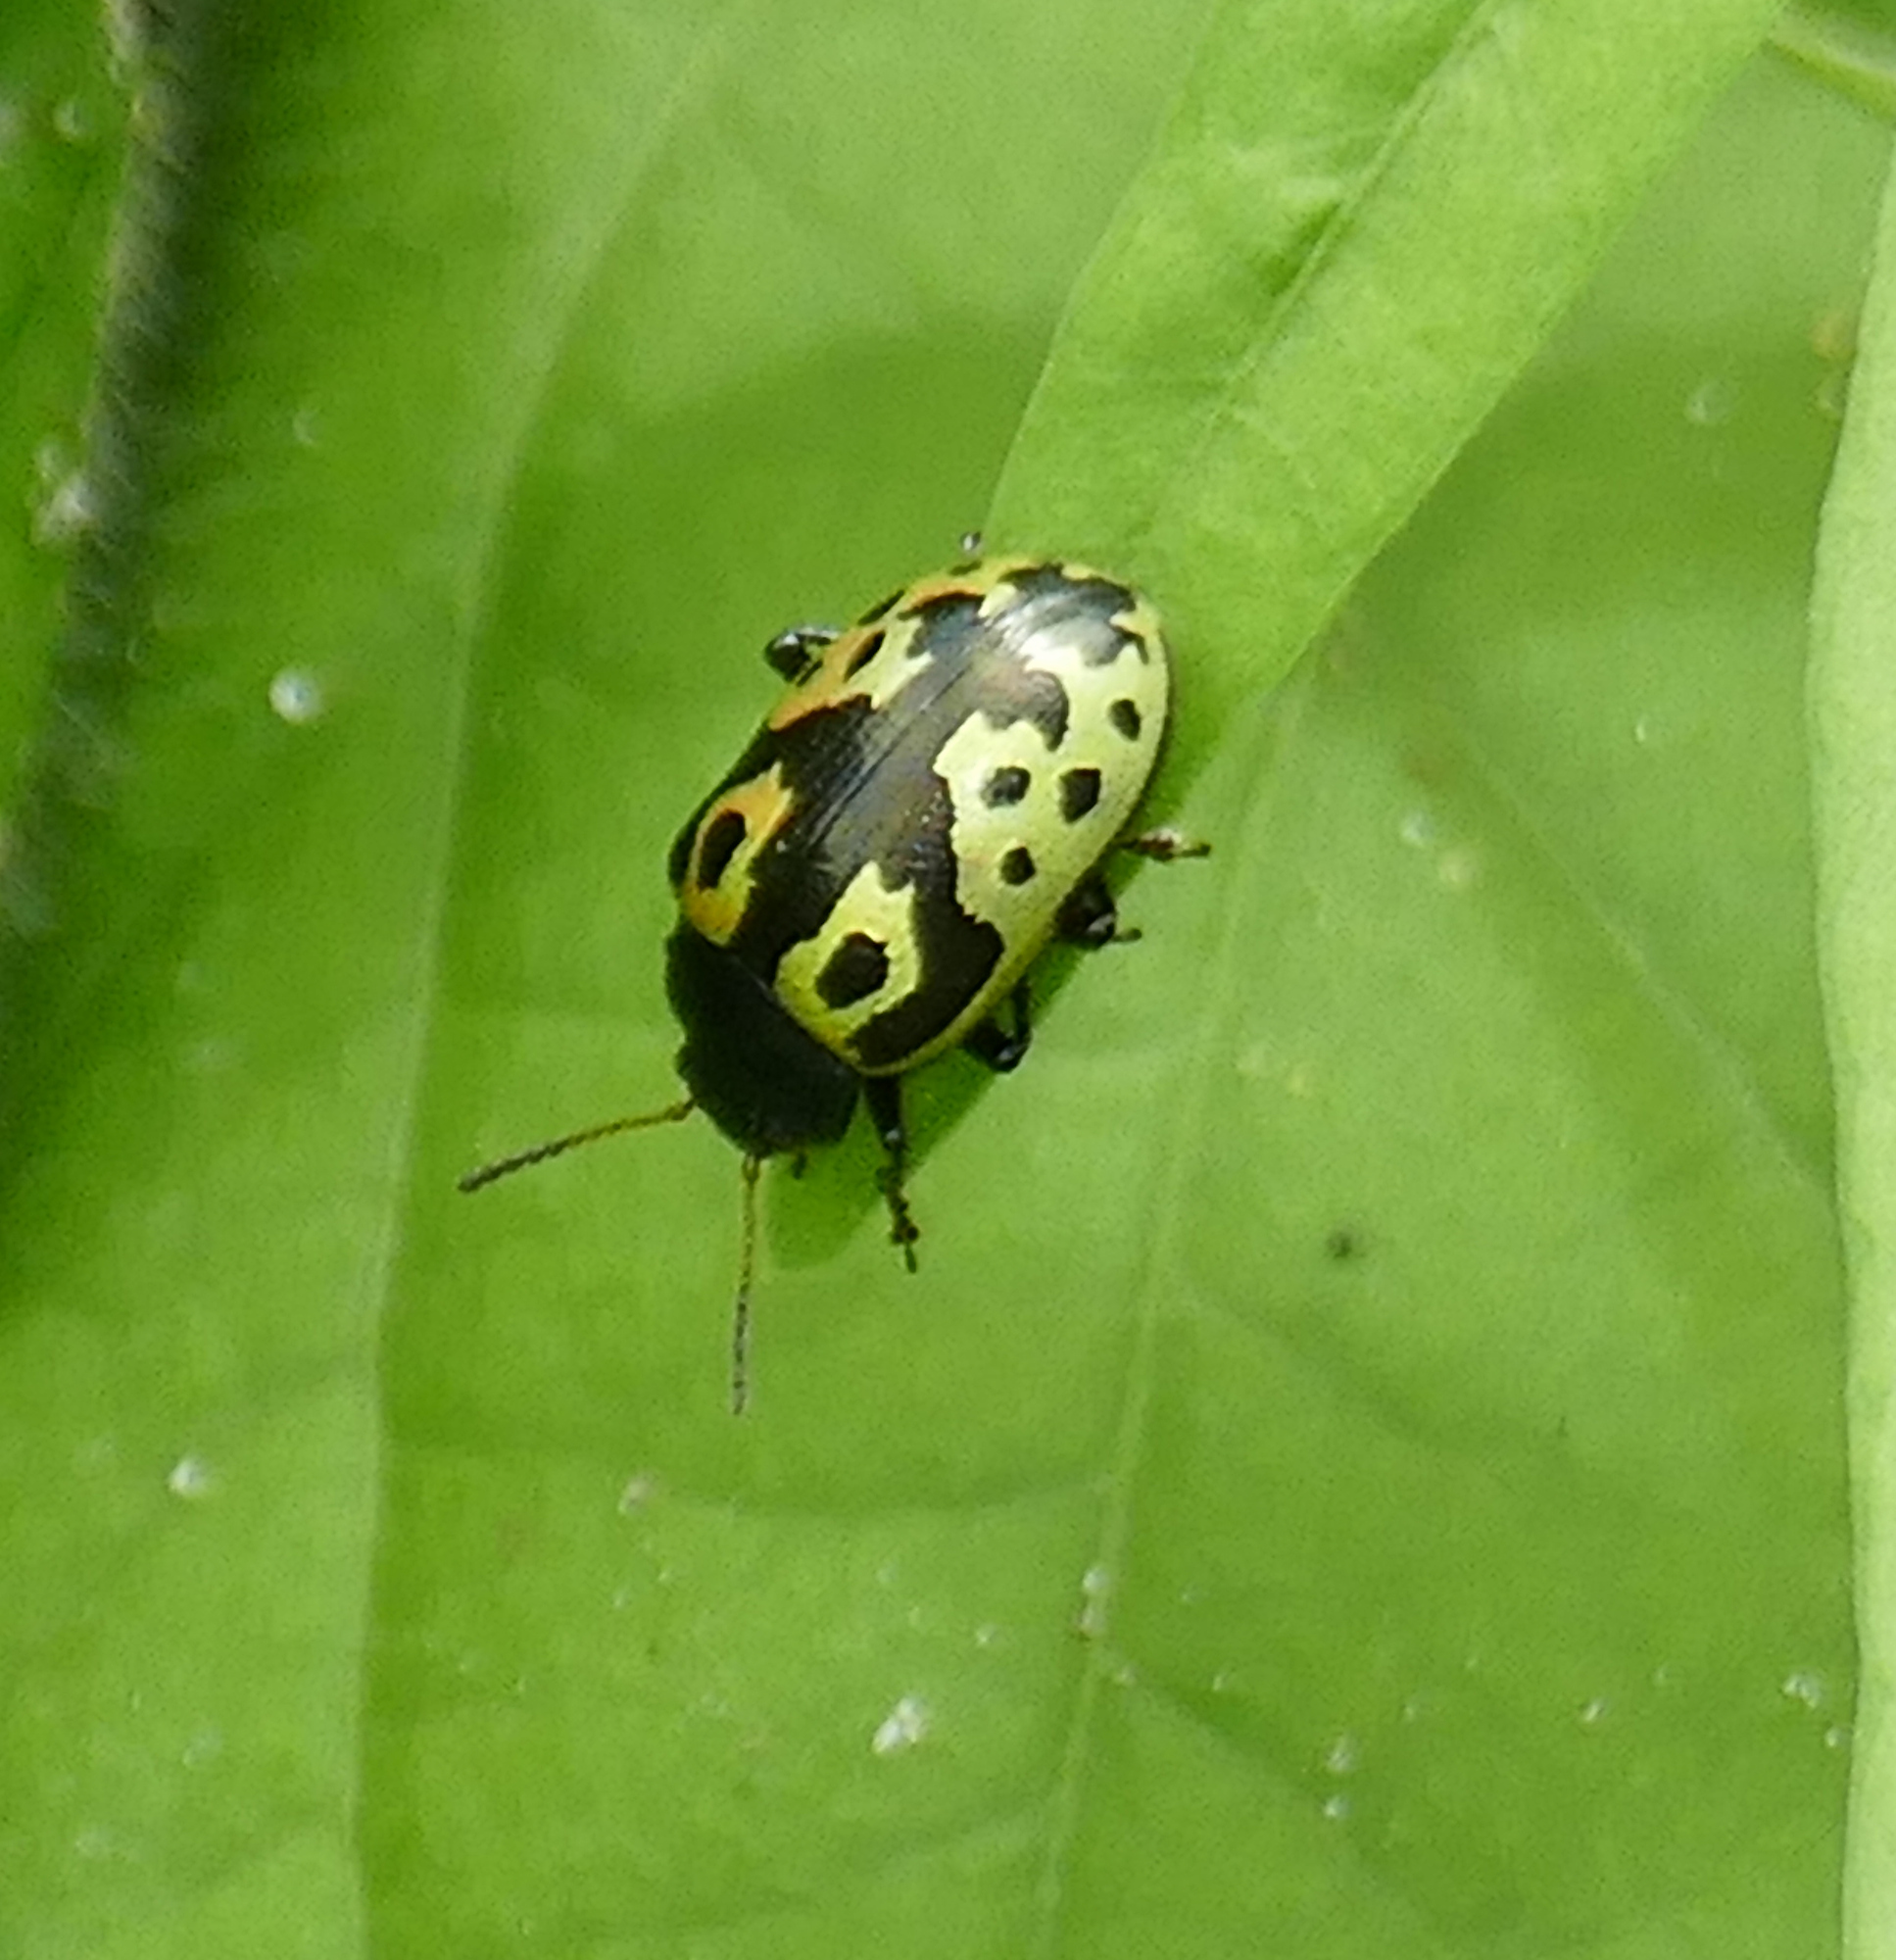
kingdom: Animalia
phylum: Arthropoda
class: Insecta
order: Coleoptera
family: Chrysomelidae
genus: Calligrapha
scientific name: Calligrapha
